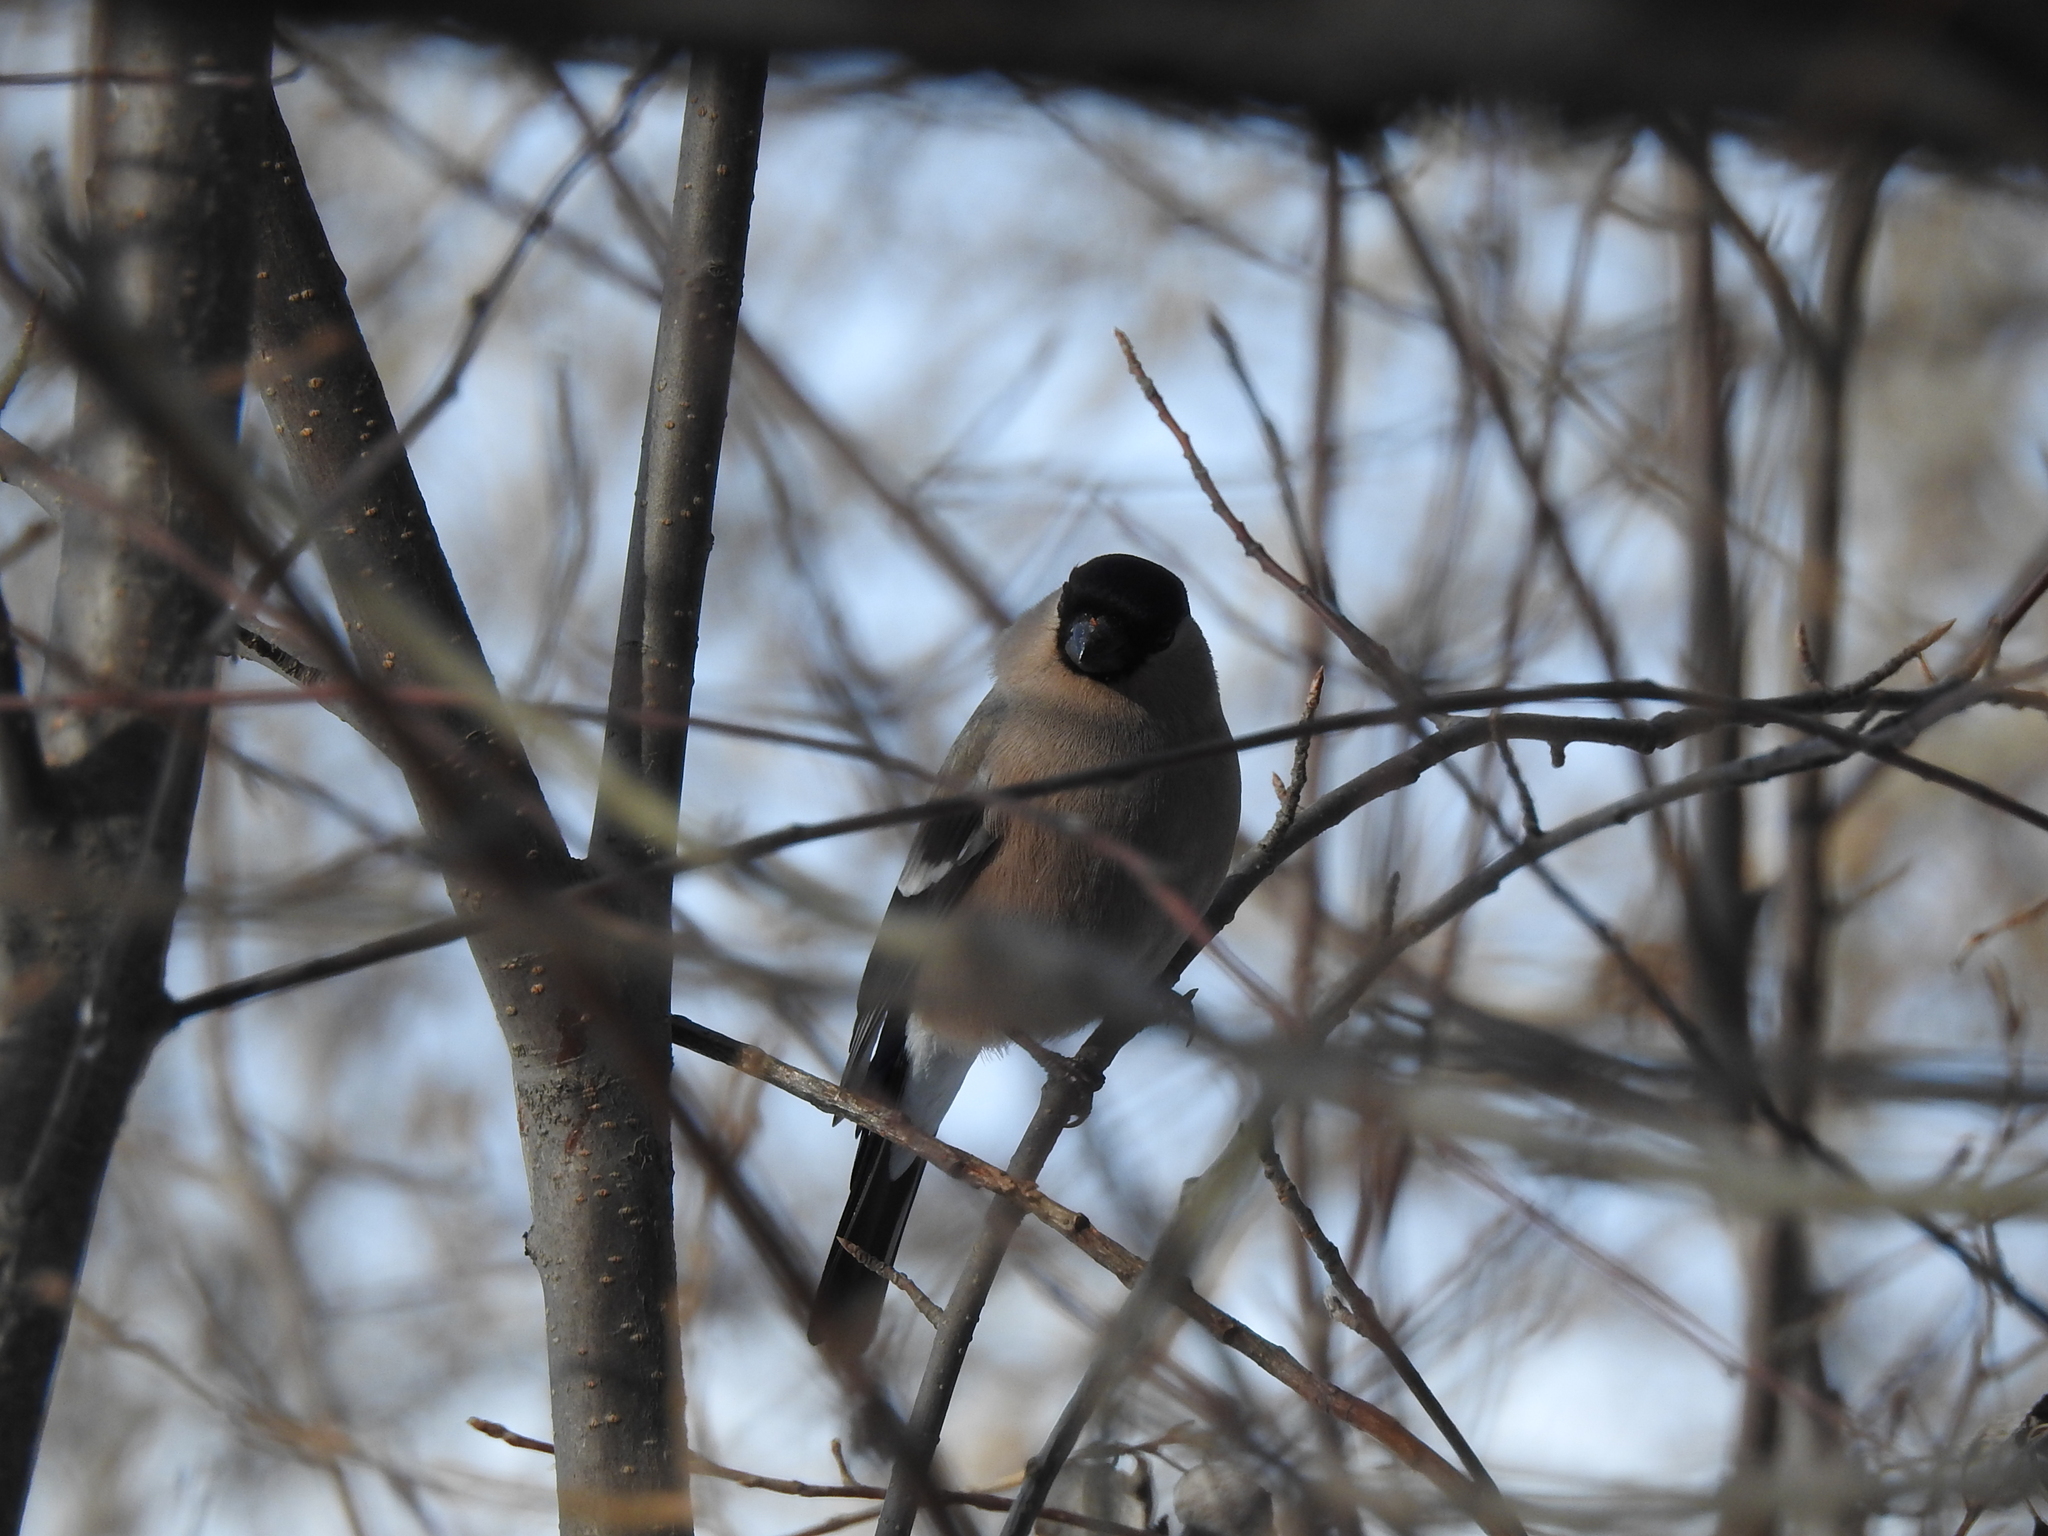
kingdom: Animalia
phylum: Chordata
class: Aves
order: Passeriformes
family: Fringillidae
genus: Pyrrhula
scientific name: Pyrrhula pyrrhula
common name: Eurasian bullfinch
